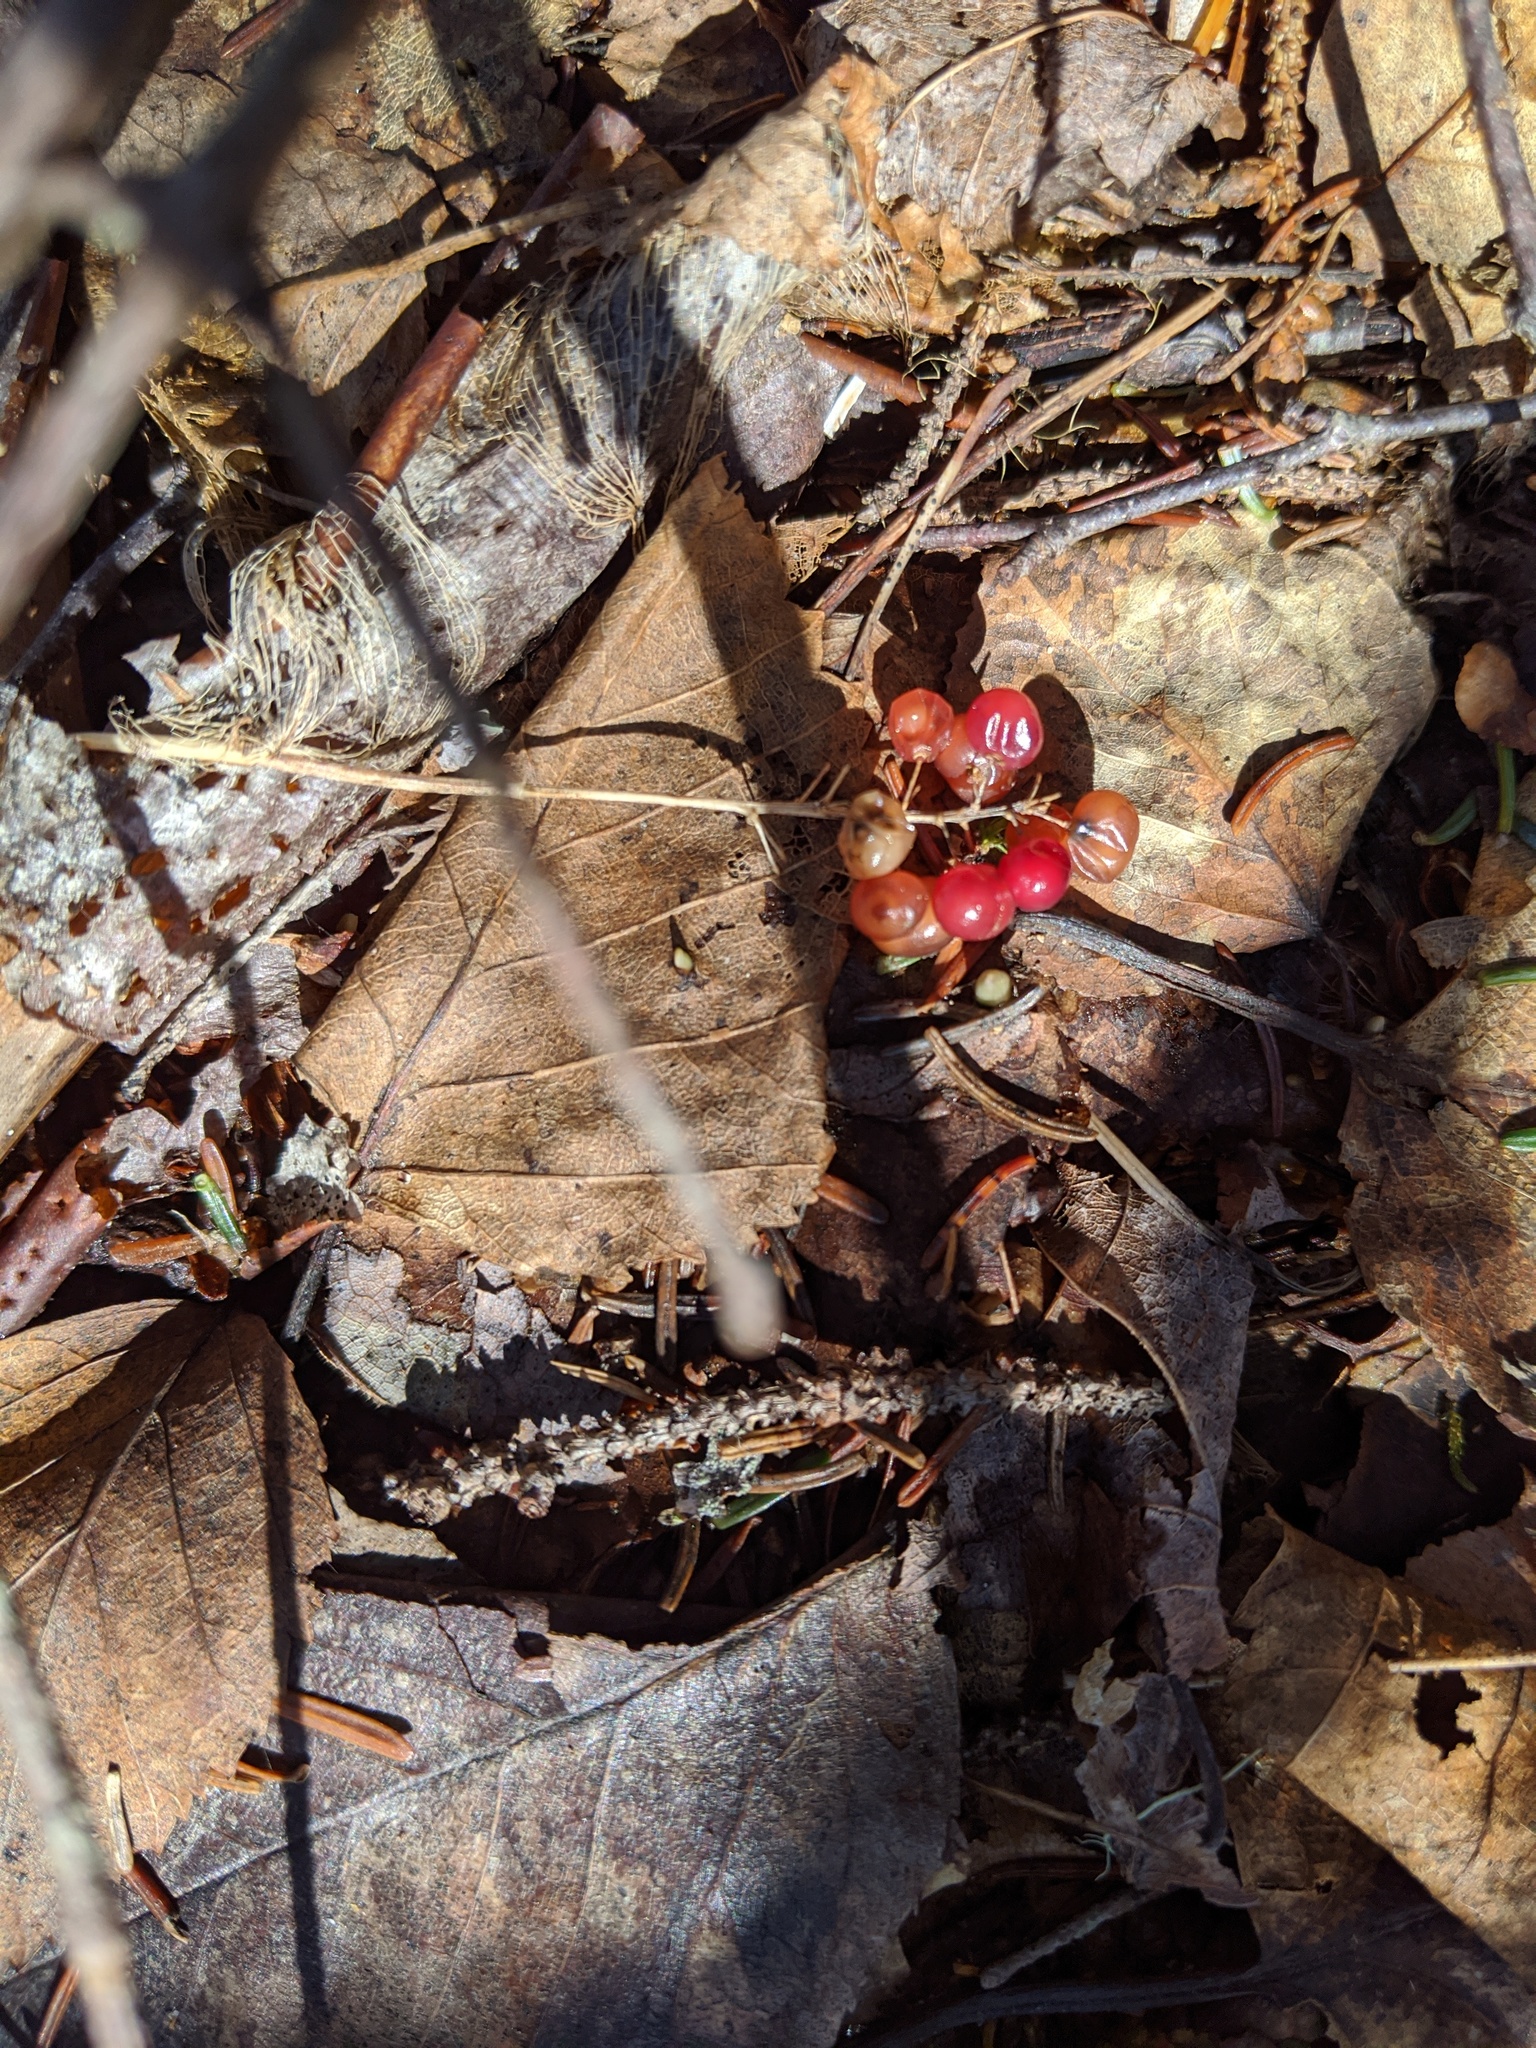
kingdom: Plantae
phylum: Tracheophyta
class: Liliopsida
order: Asparagales
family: Asparagaceae
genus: Maianthemum
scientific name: Maianthemum canadense
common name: False lily-of-the-valley
